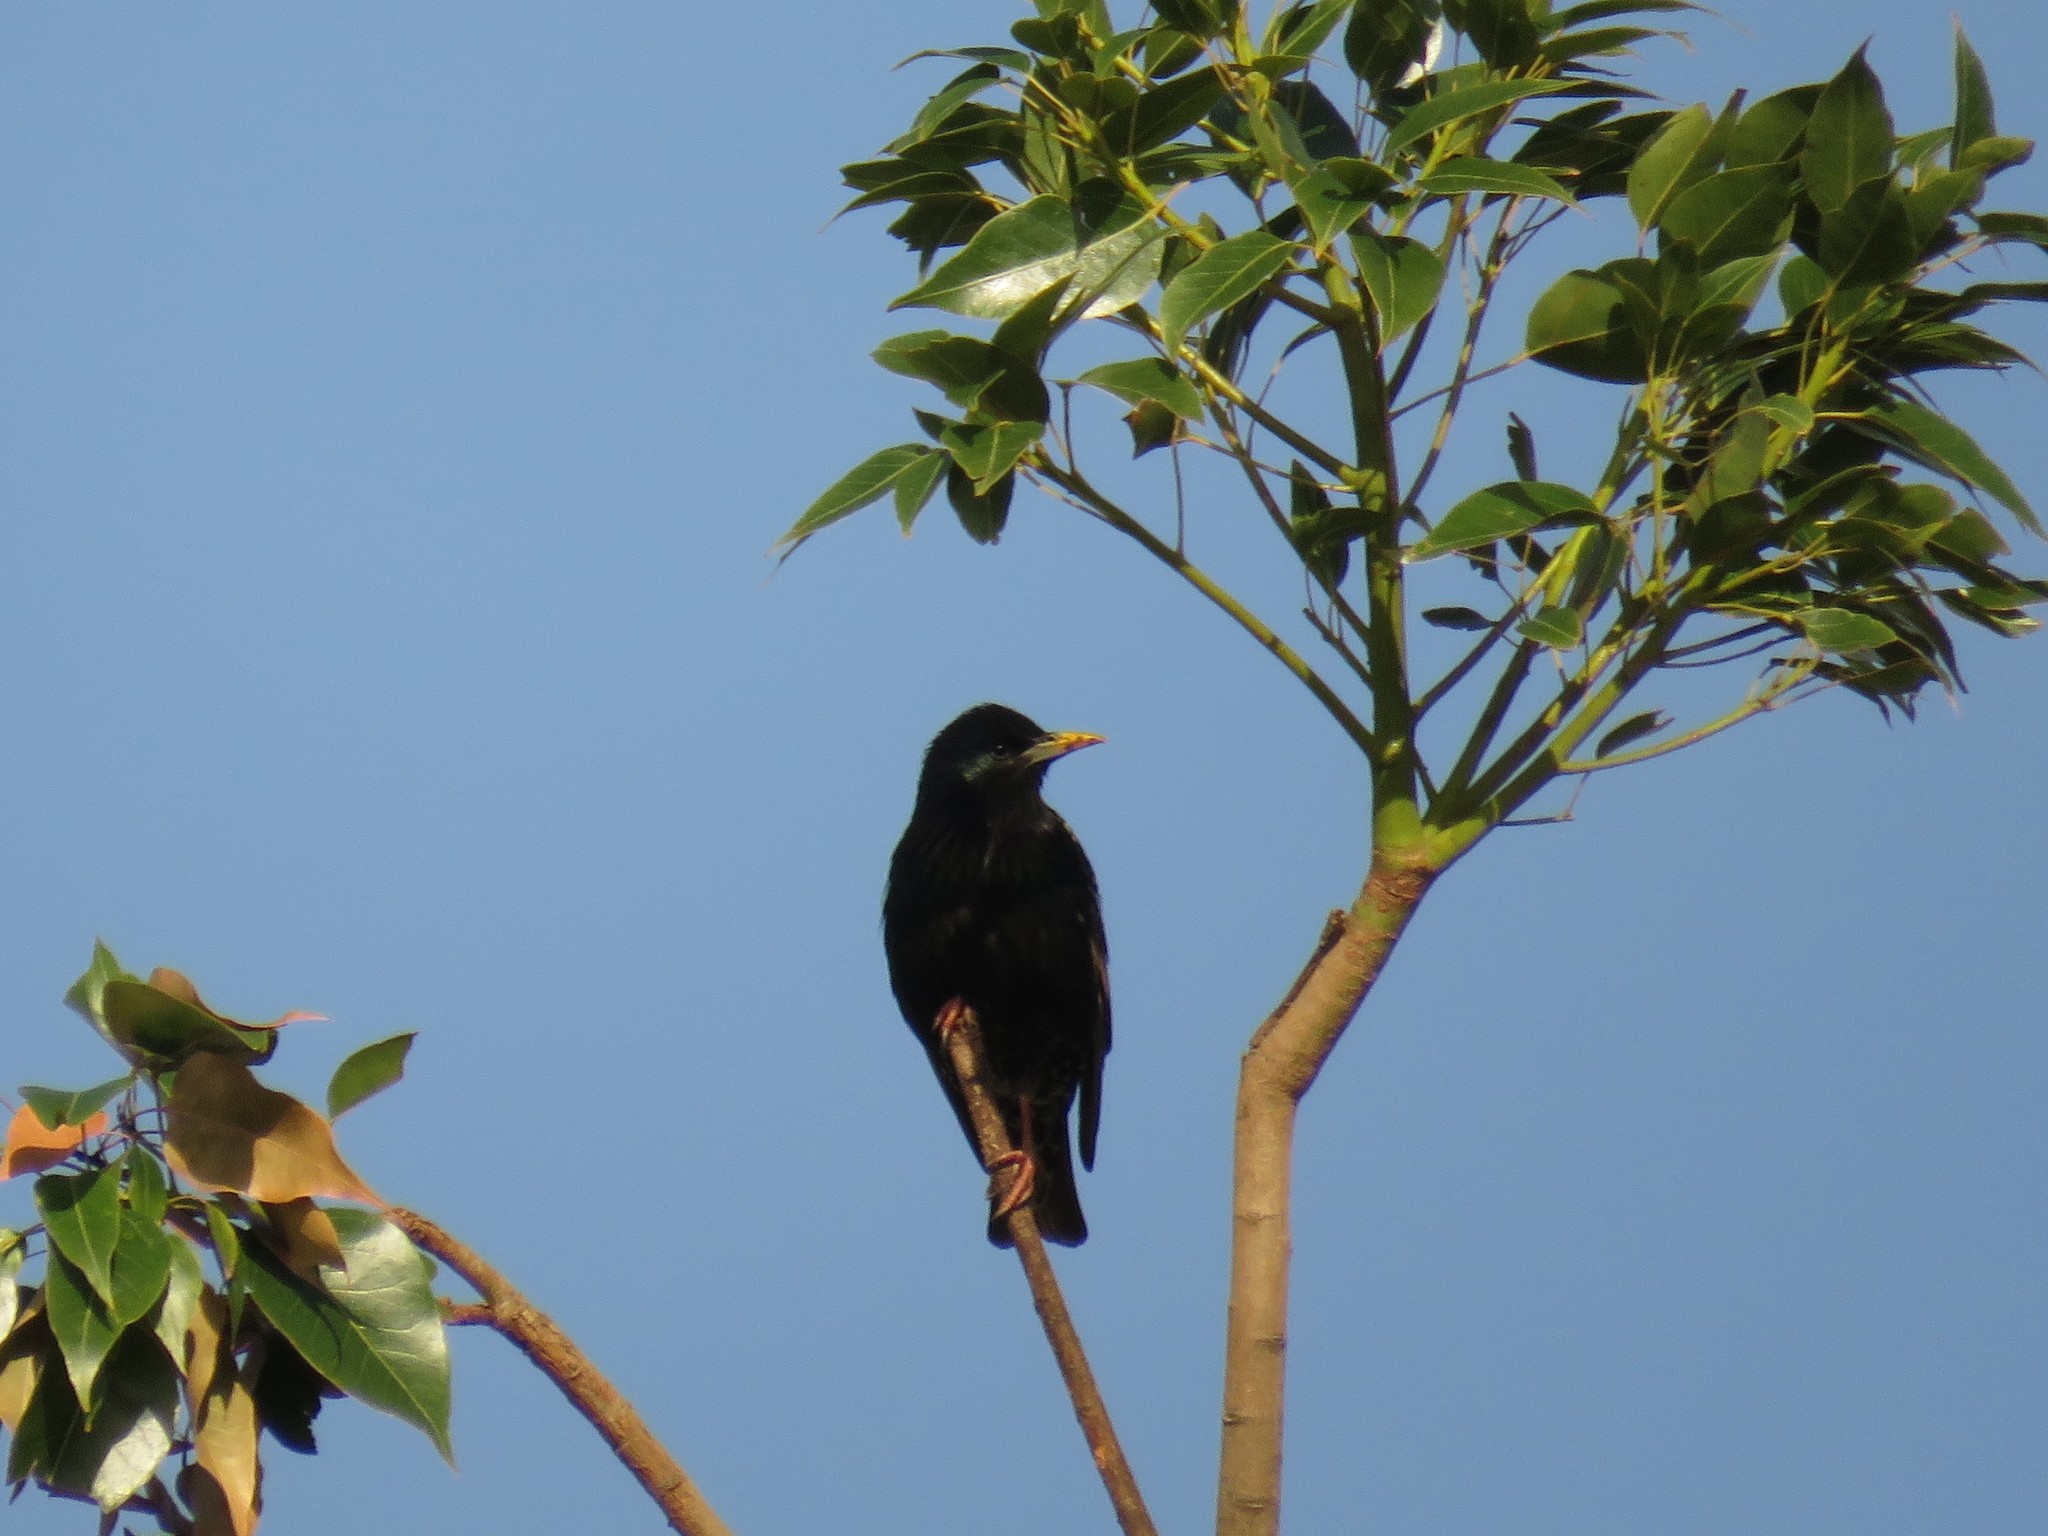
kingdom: Animalia
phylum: Chordata
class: Aves
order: Passeriformes
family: Sturnidae
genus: Sturnus
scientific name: Sturnus vulgaris
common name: Common starling
